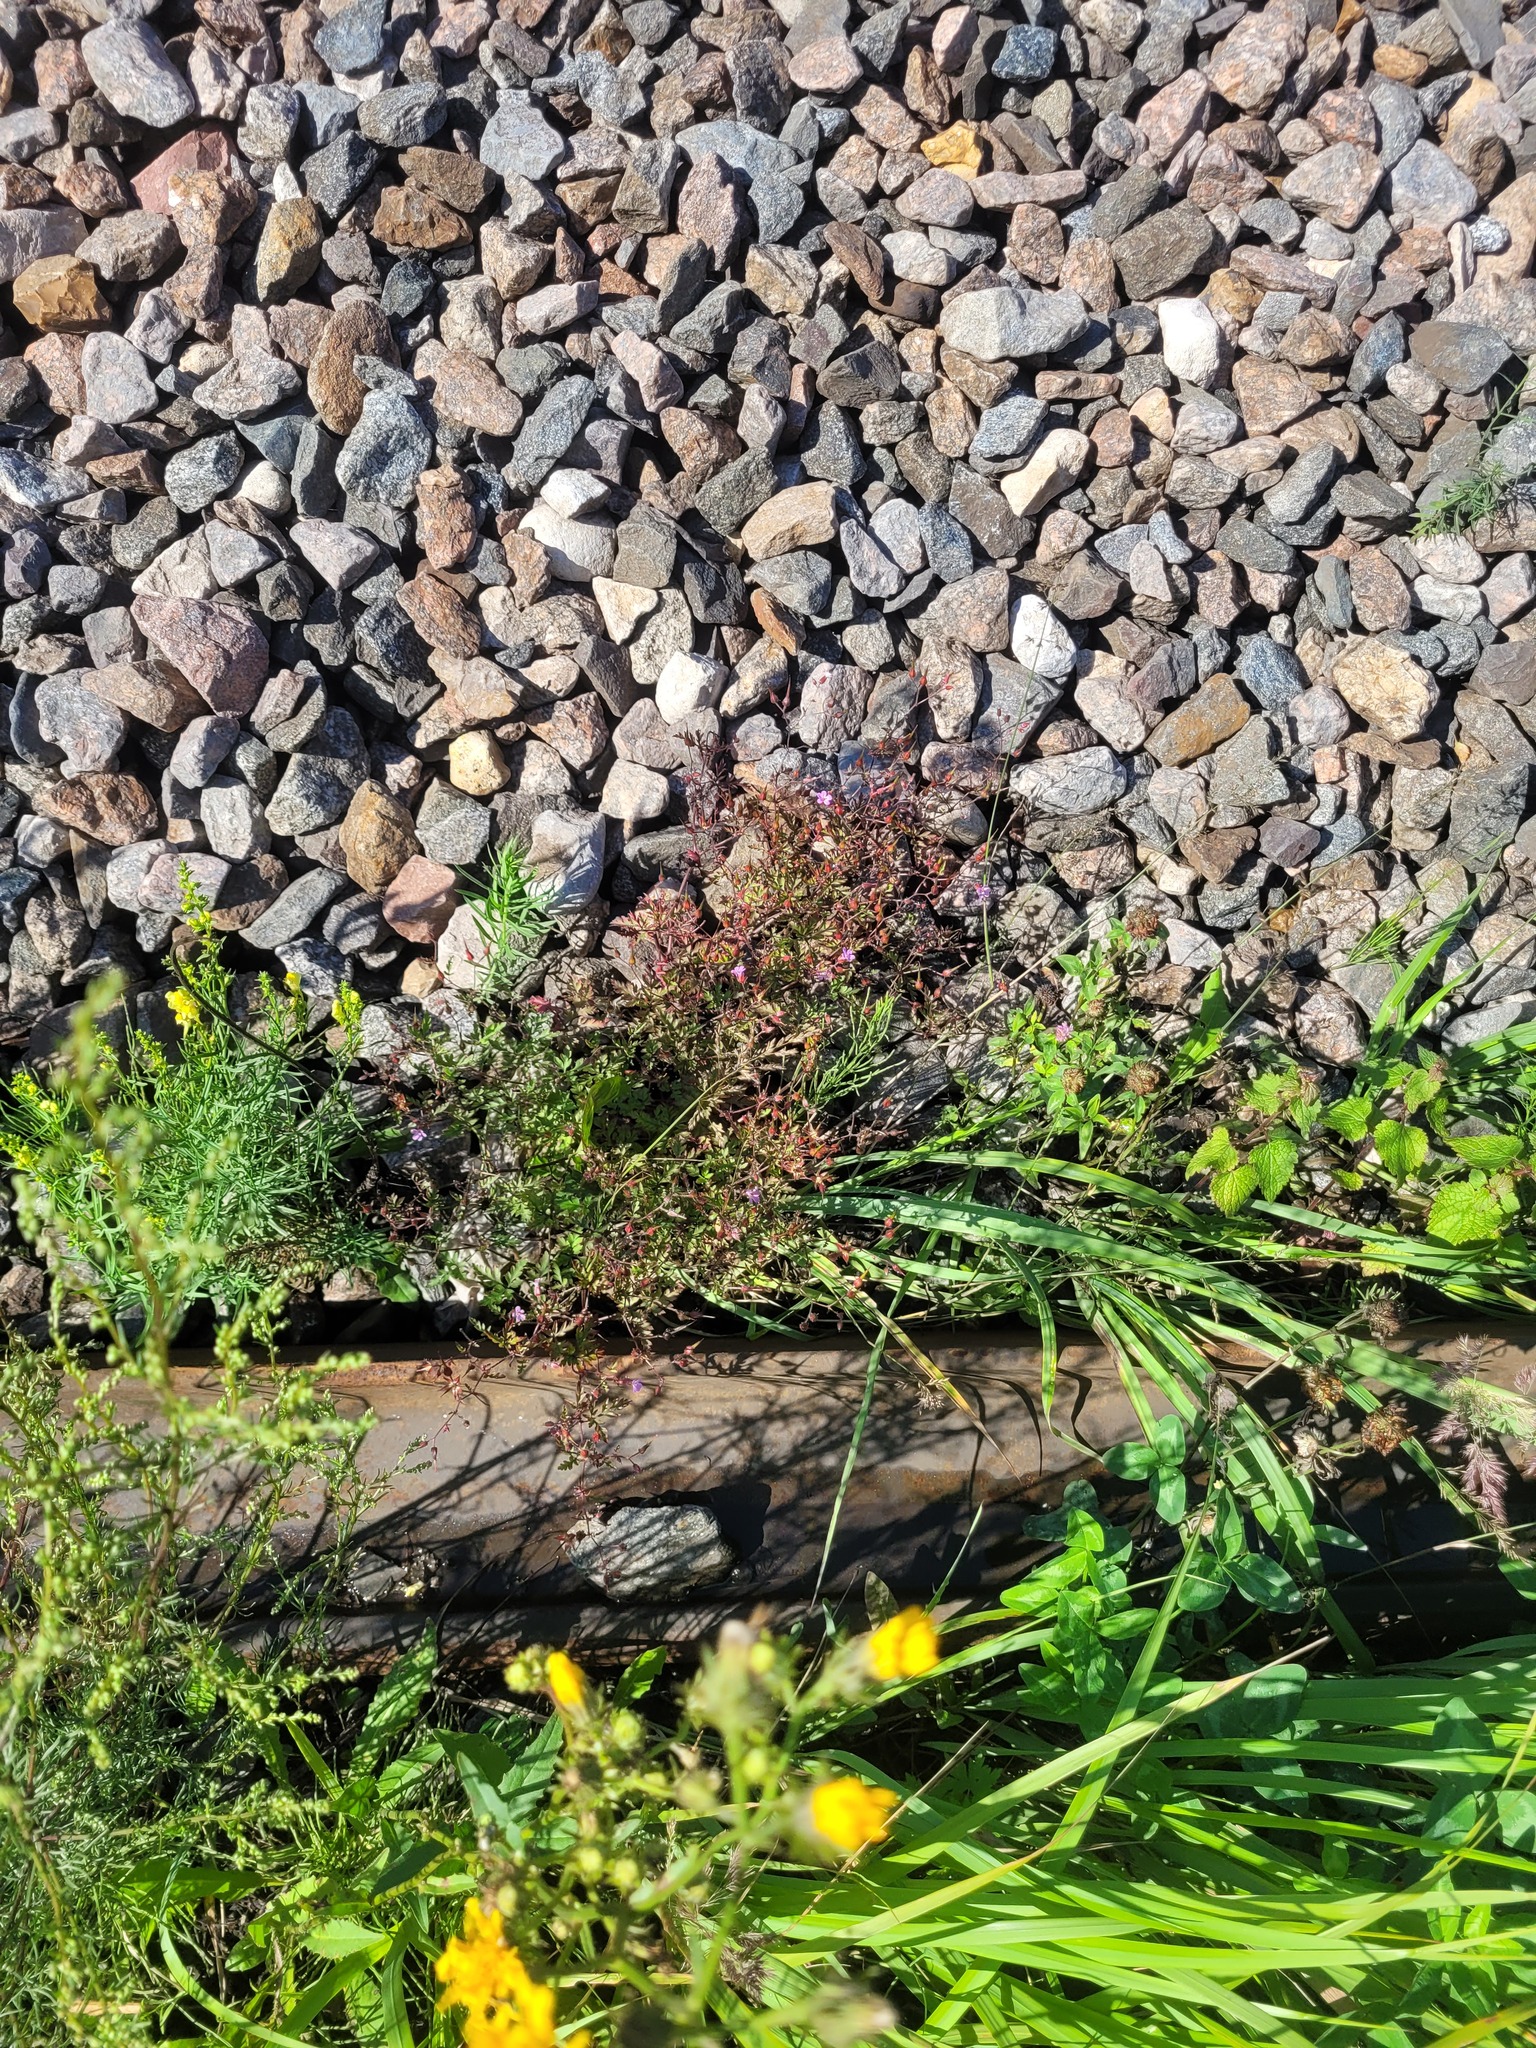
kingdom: Plantae
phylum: Tracheophyta
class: Magnoliopsida
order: Geraniales
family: Geraniaceae
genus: Geranium
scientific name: Geranium robertianum
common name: Herb-robert
